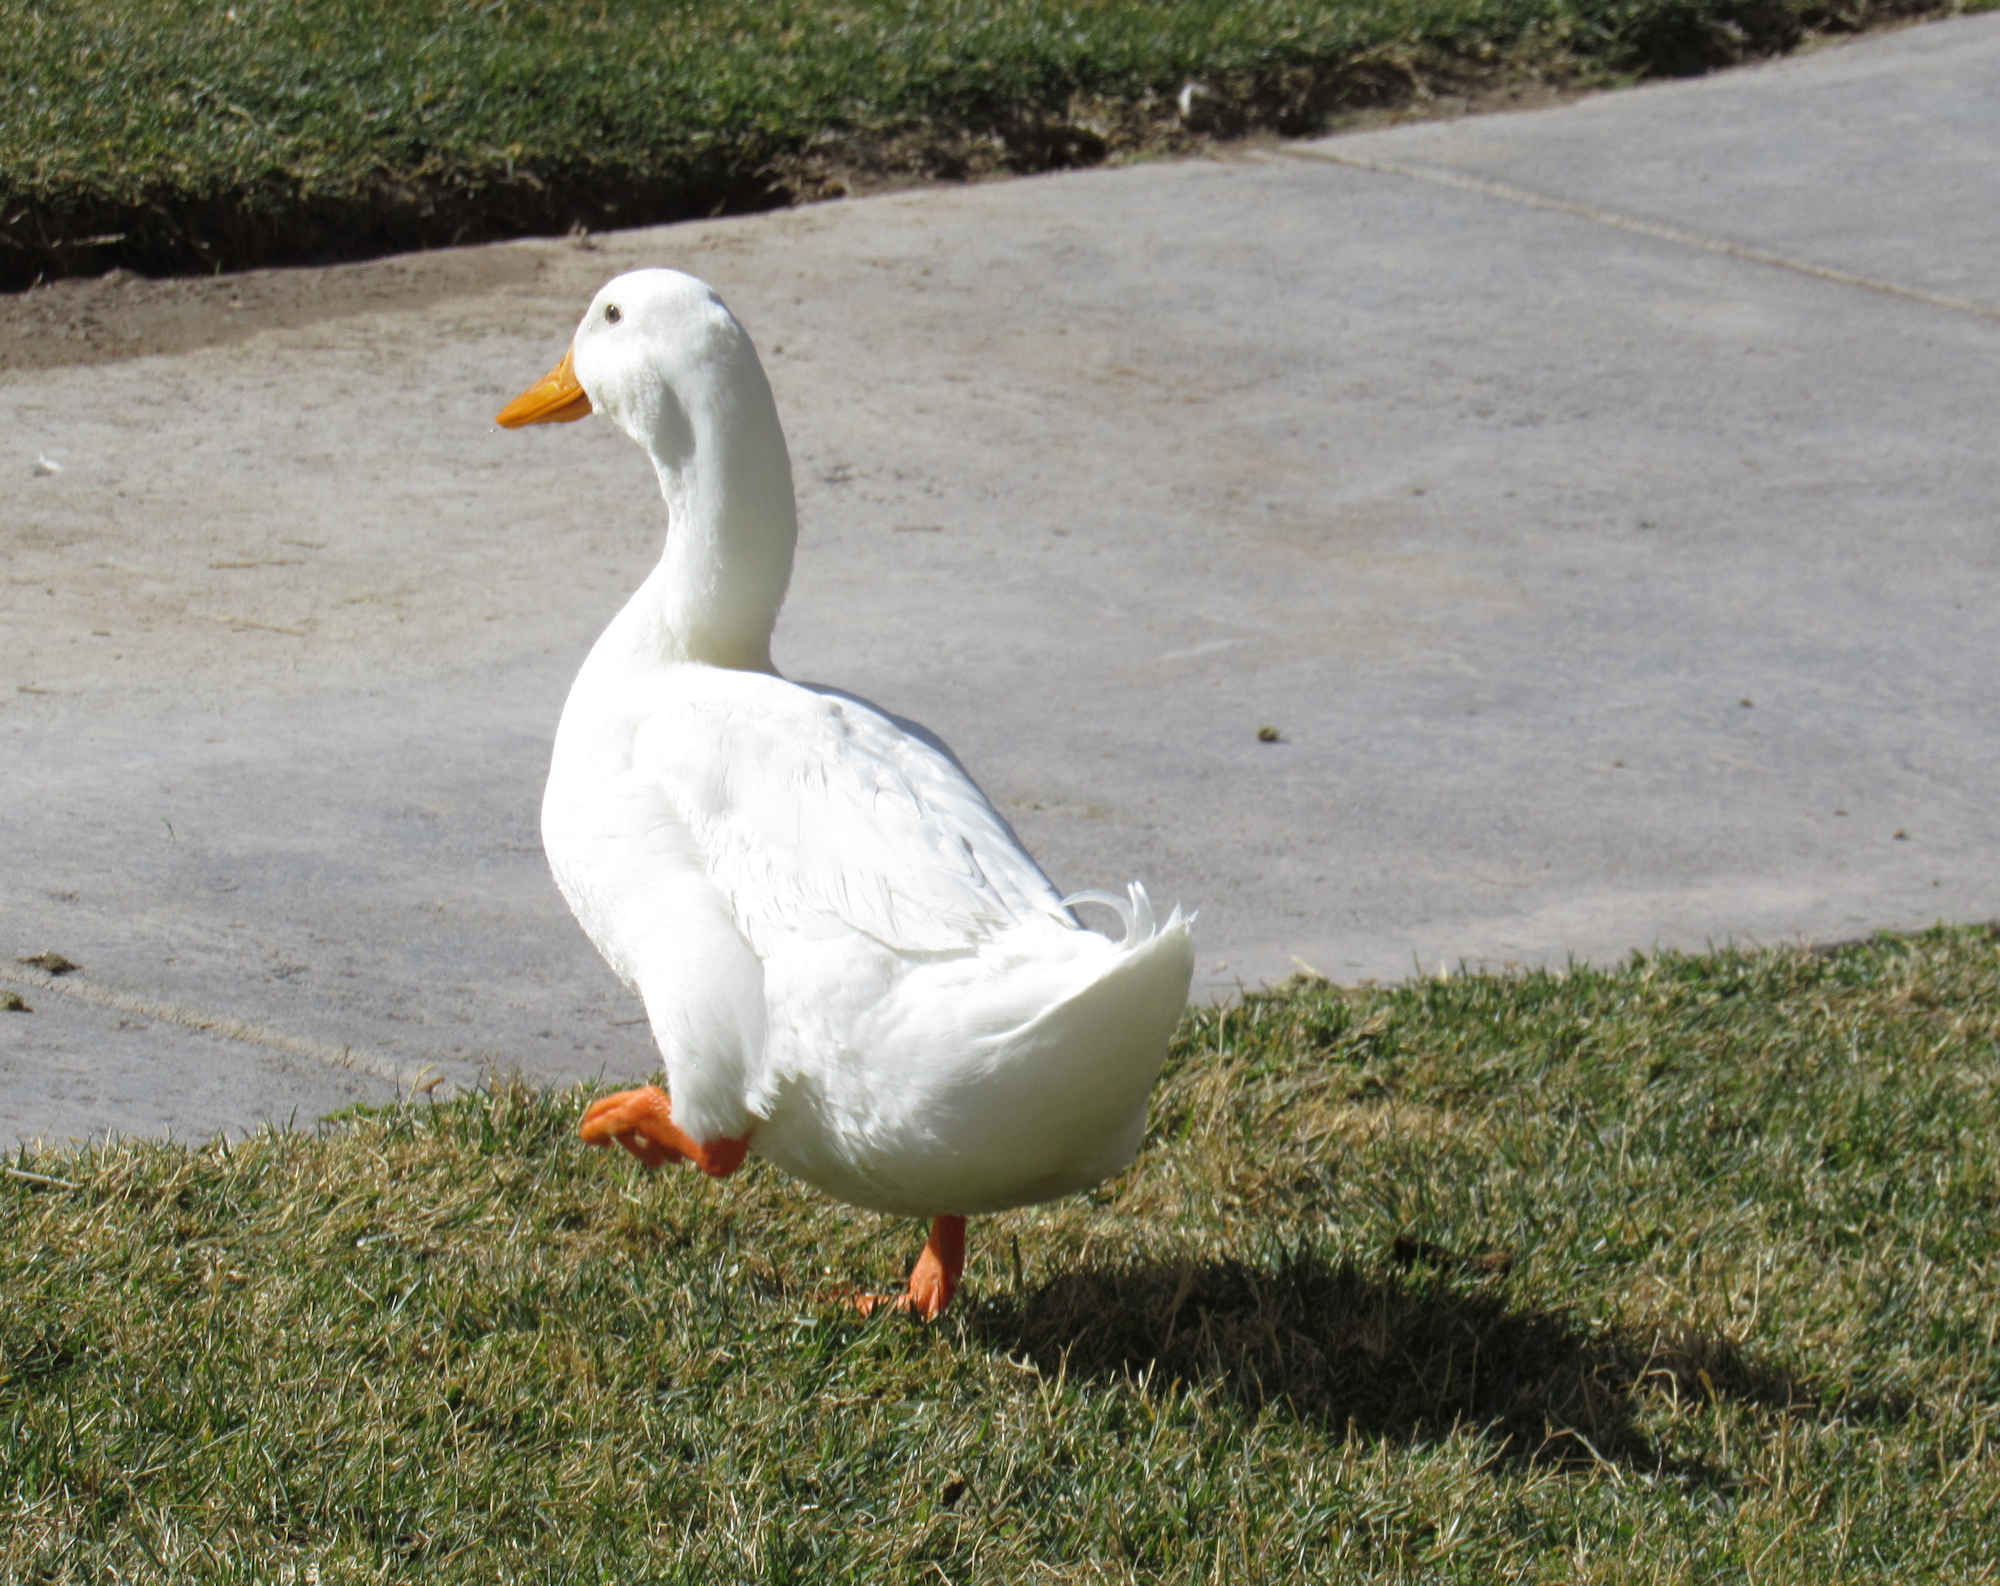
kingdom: Animalia
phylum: Chordata
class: Aves
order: Anseriformes
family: Anatidae
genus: Anas
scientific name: Anas platyrhynchos
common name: Mallard
